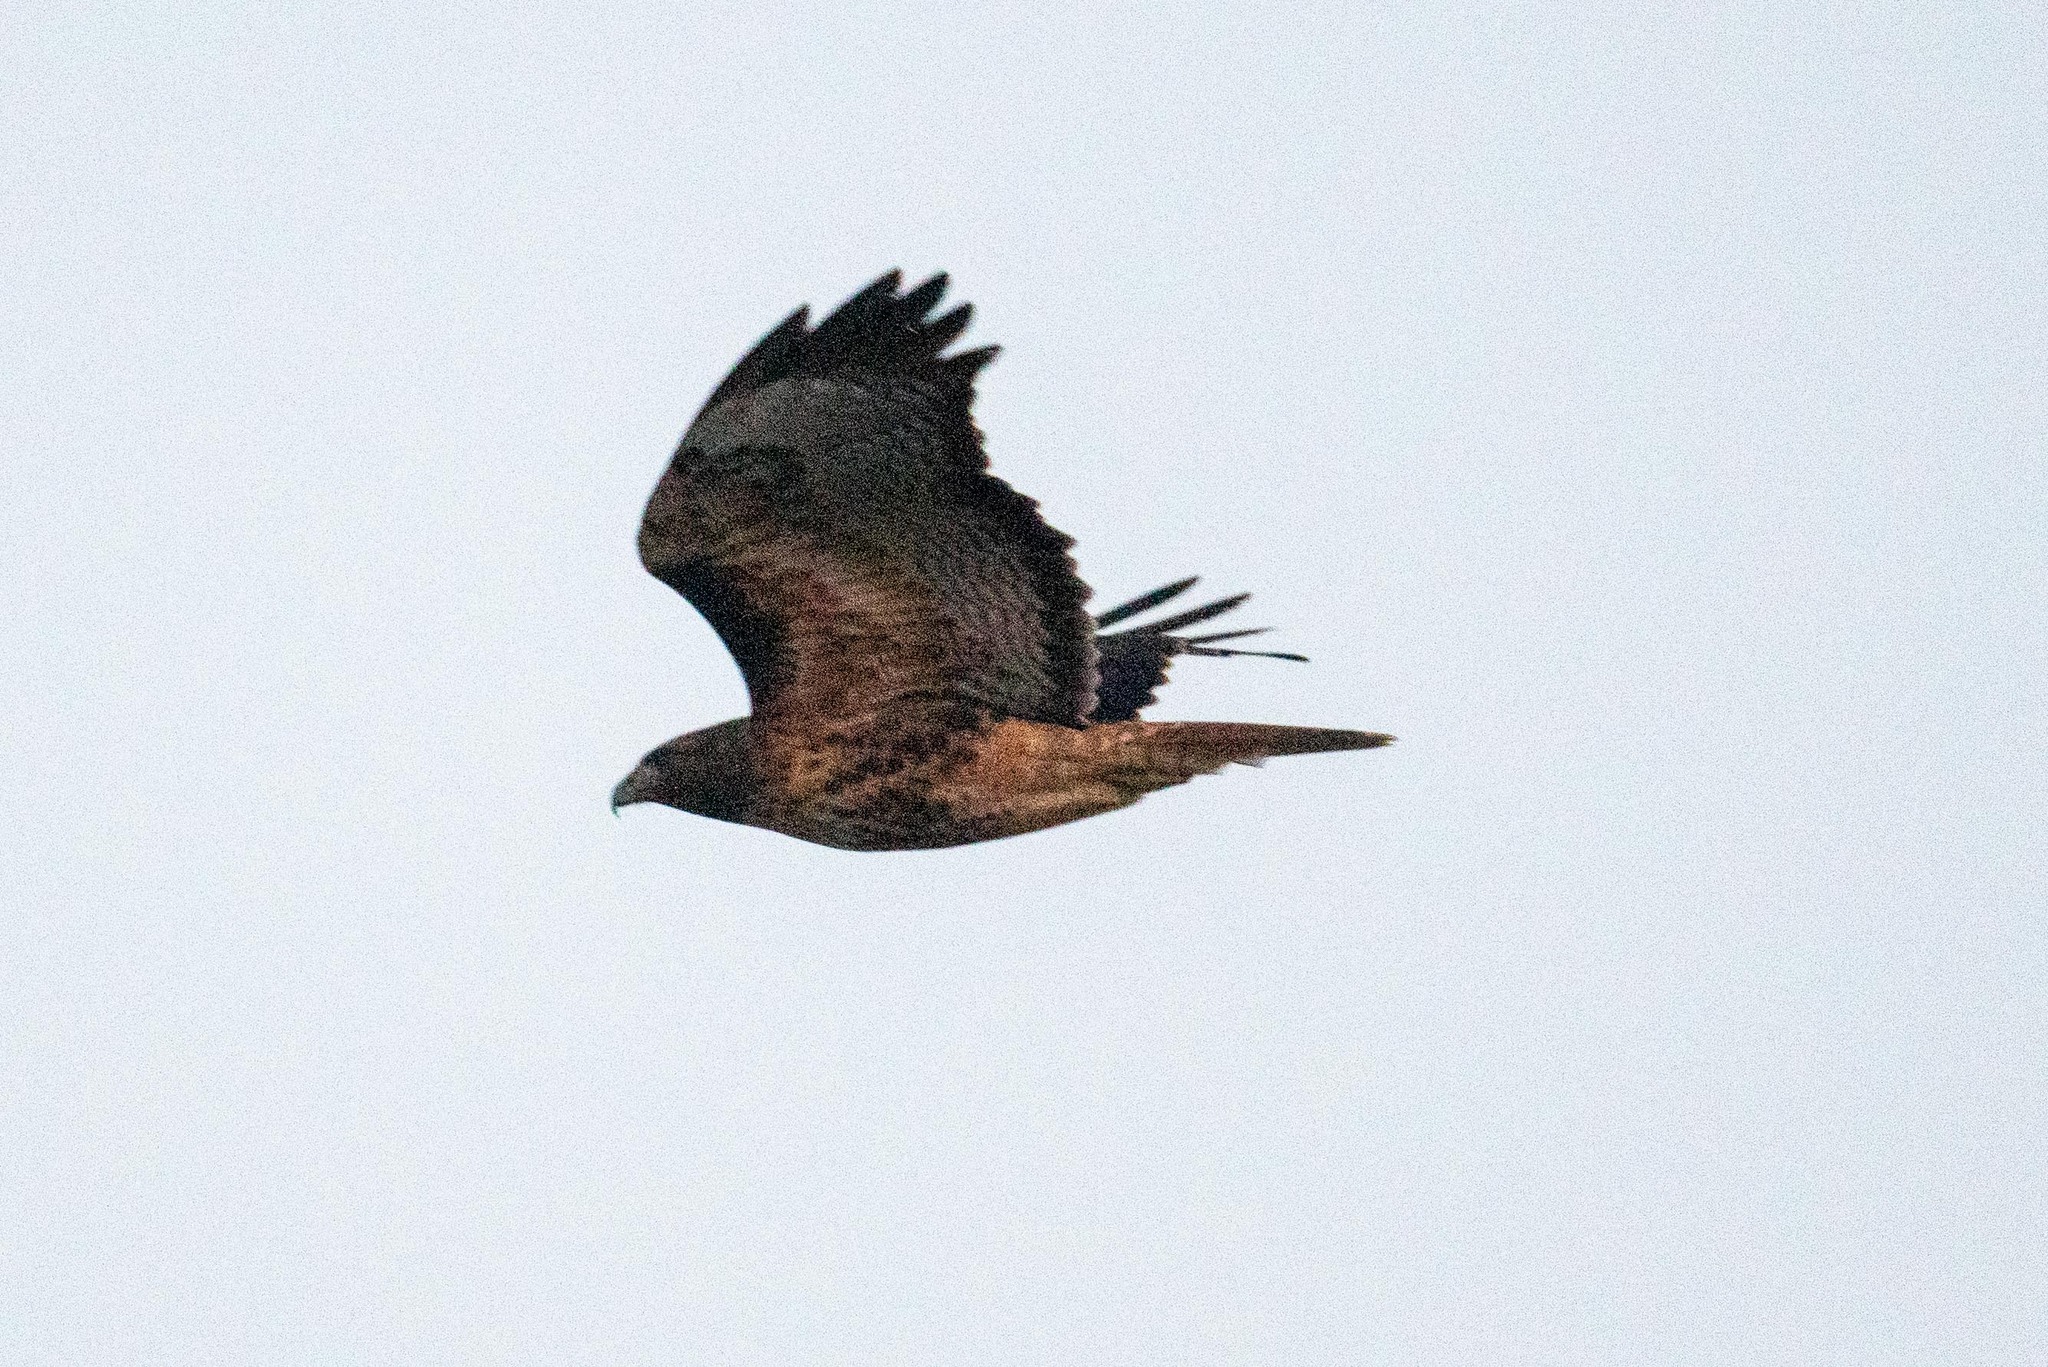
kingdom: Animalia
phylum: Chordata
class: Aves
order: Accipitriformes
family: Accipitridae
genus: Buteo
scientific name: Buteo jamaicensis
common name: Red-tailed hawk
